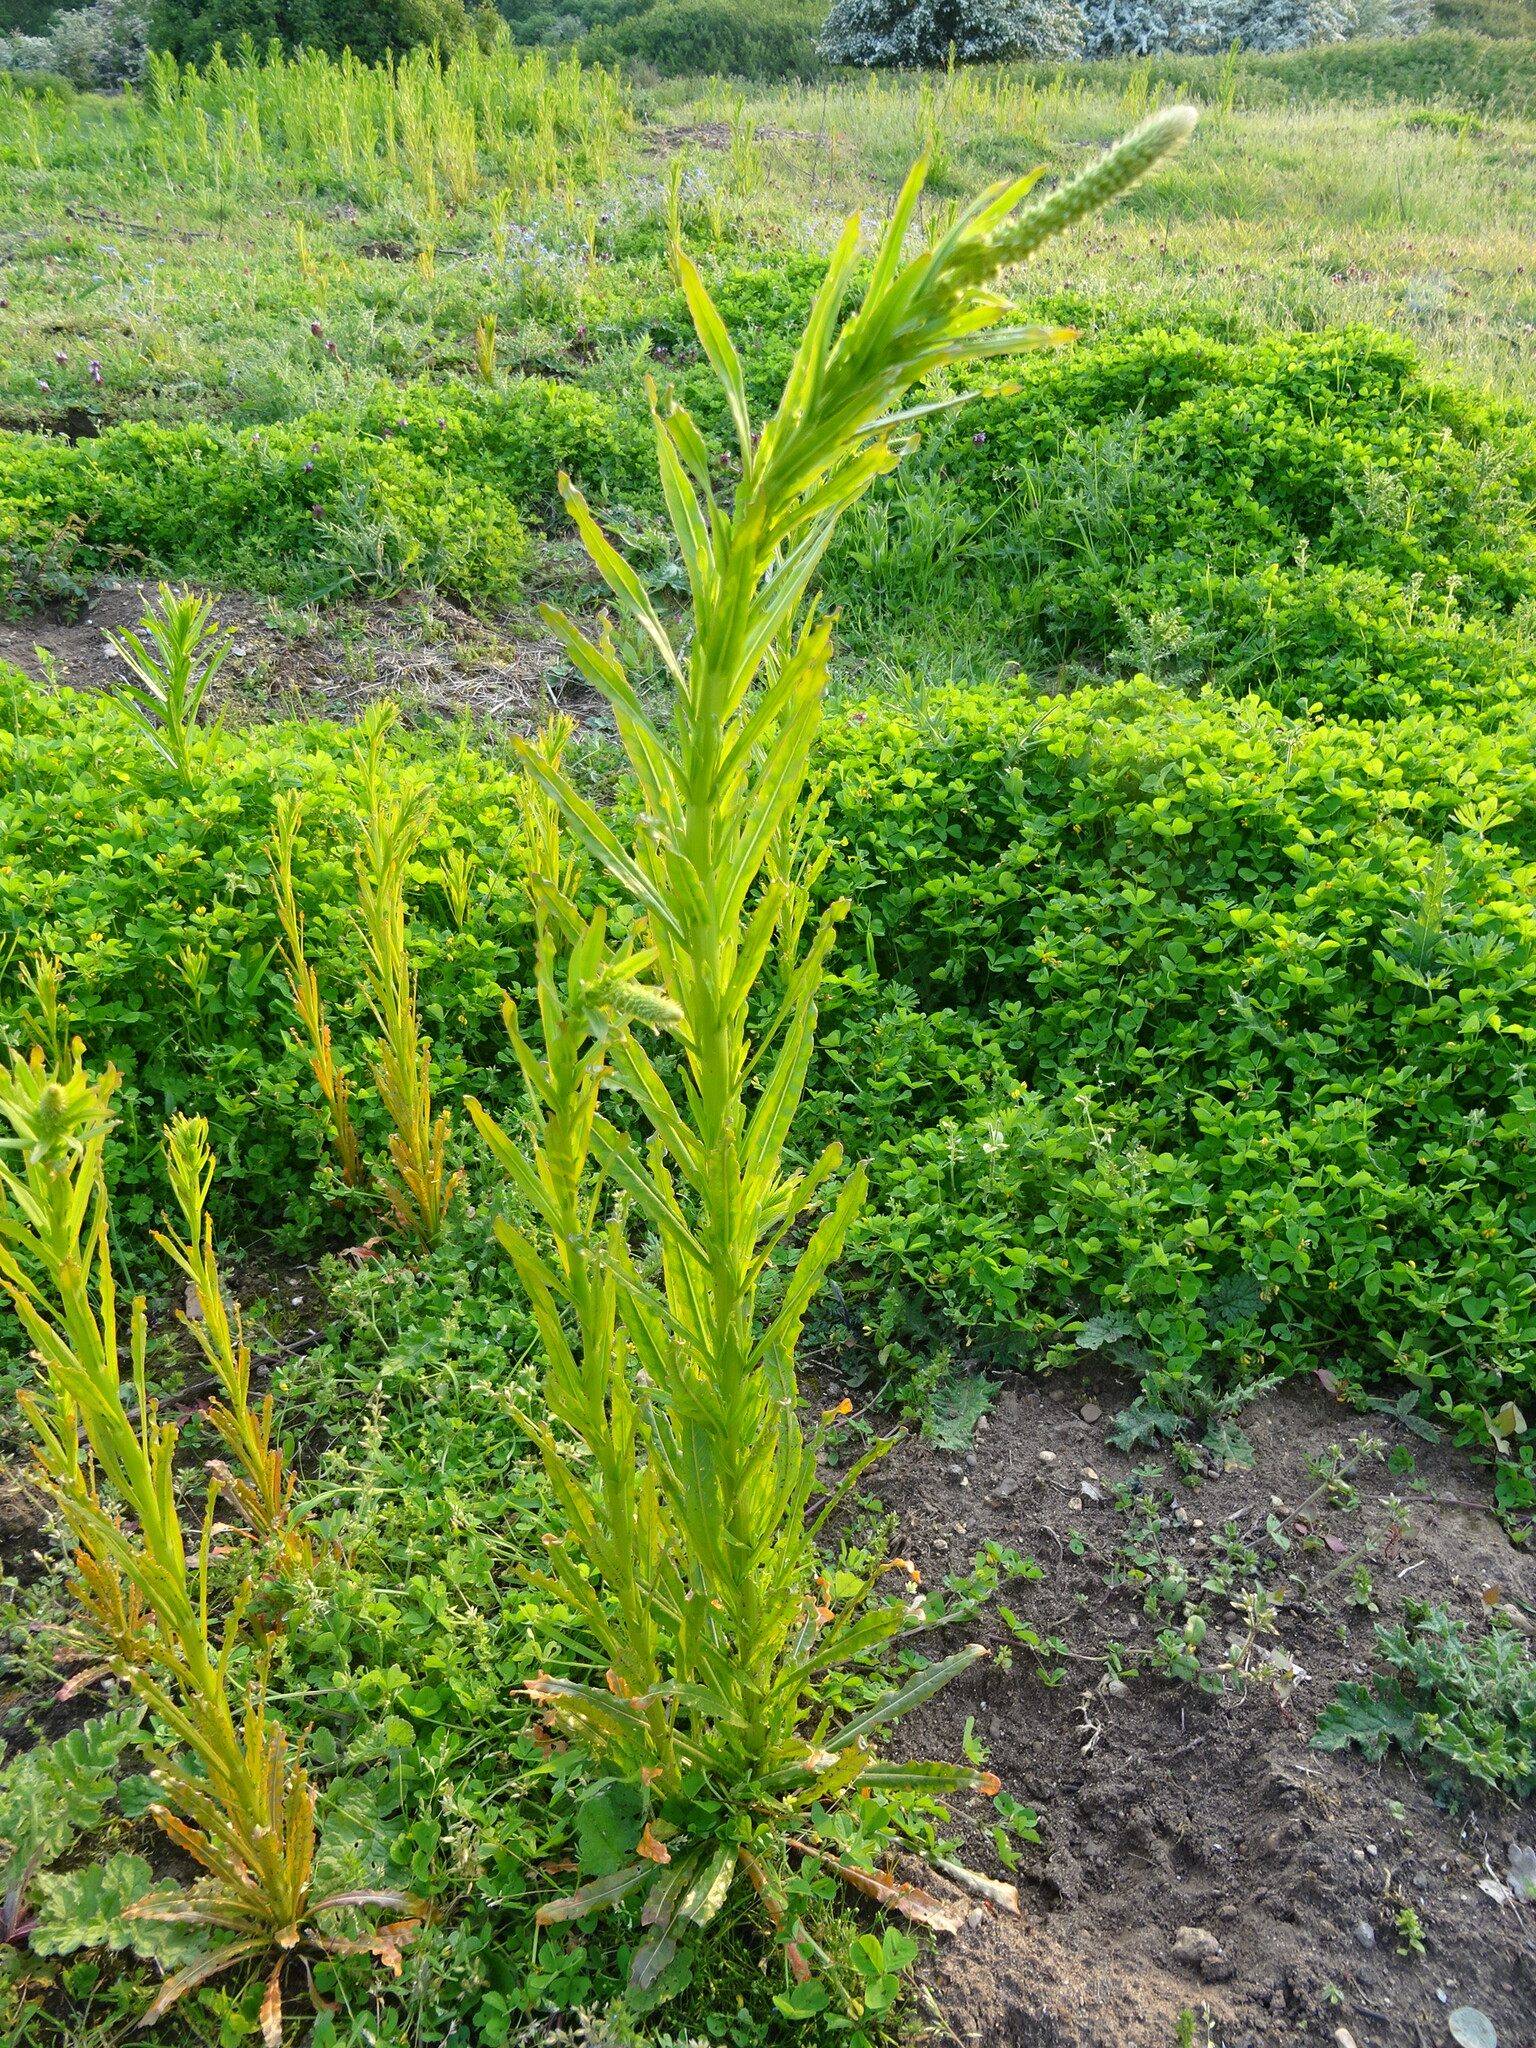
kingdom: Plantae
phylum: Tracheophyta
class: Magnoliopsida
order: Brassicales
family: Resedaceae
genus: Reseda
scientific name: Reseda luteola
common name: Weld
